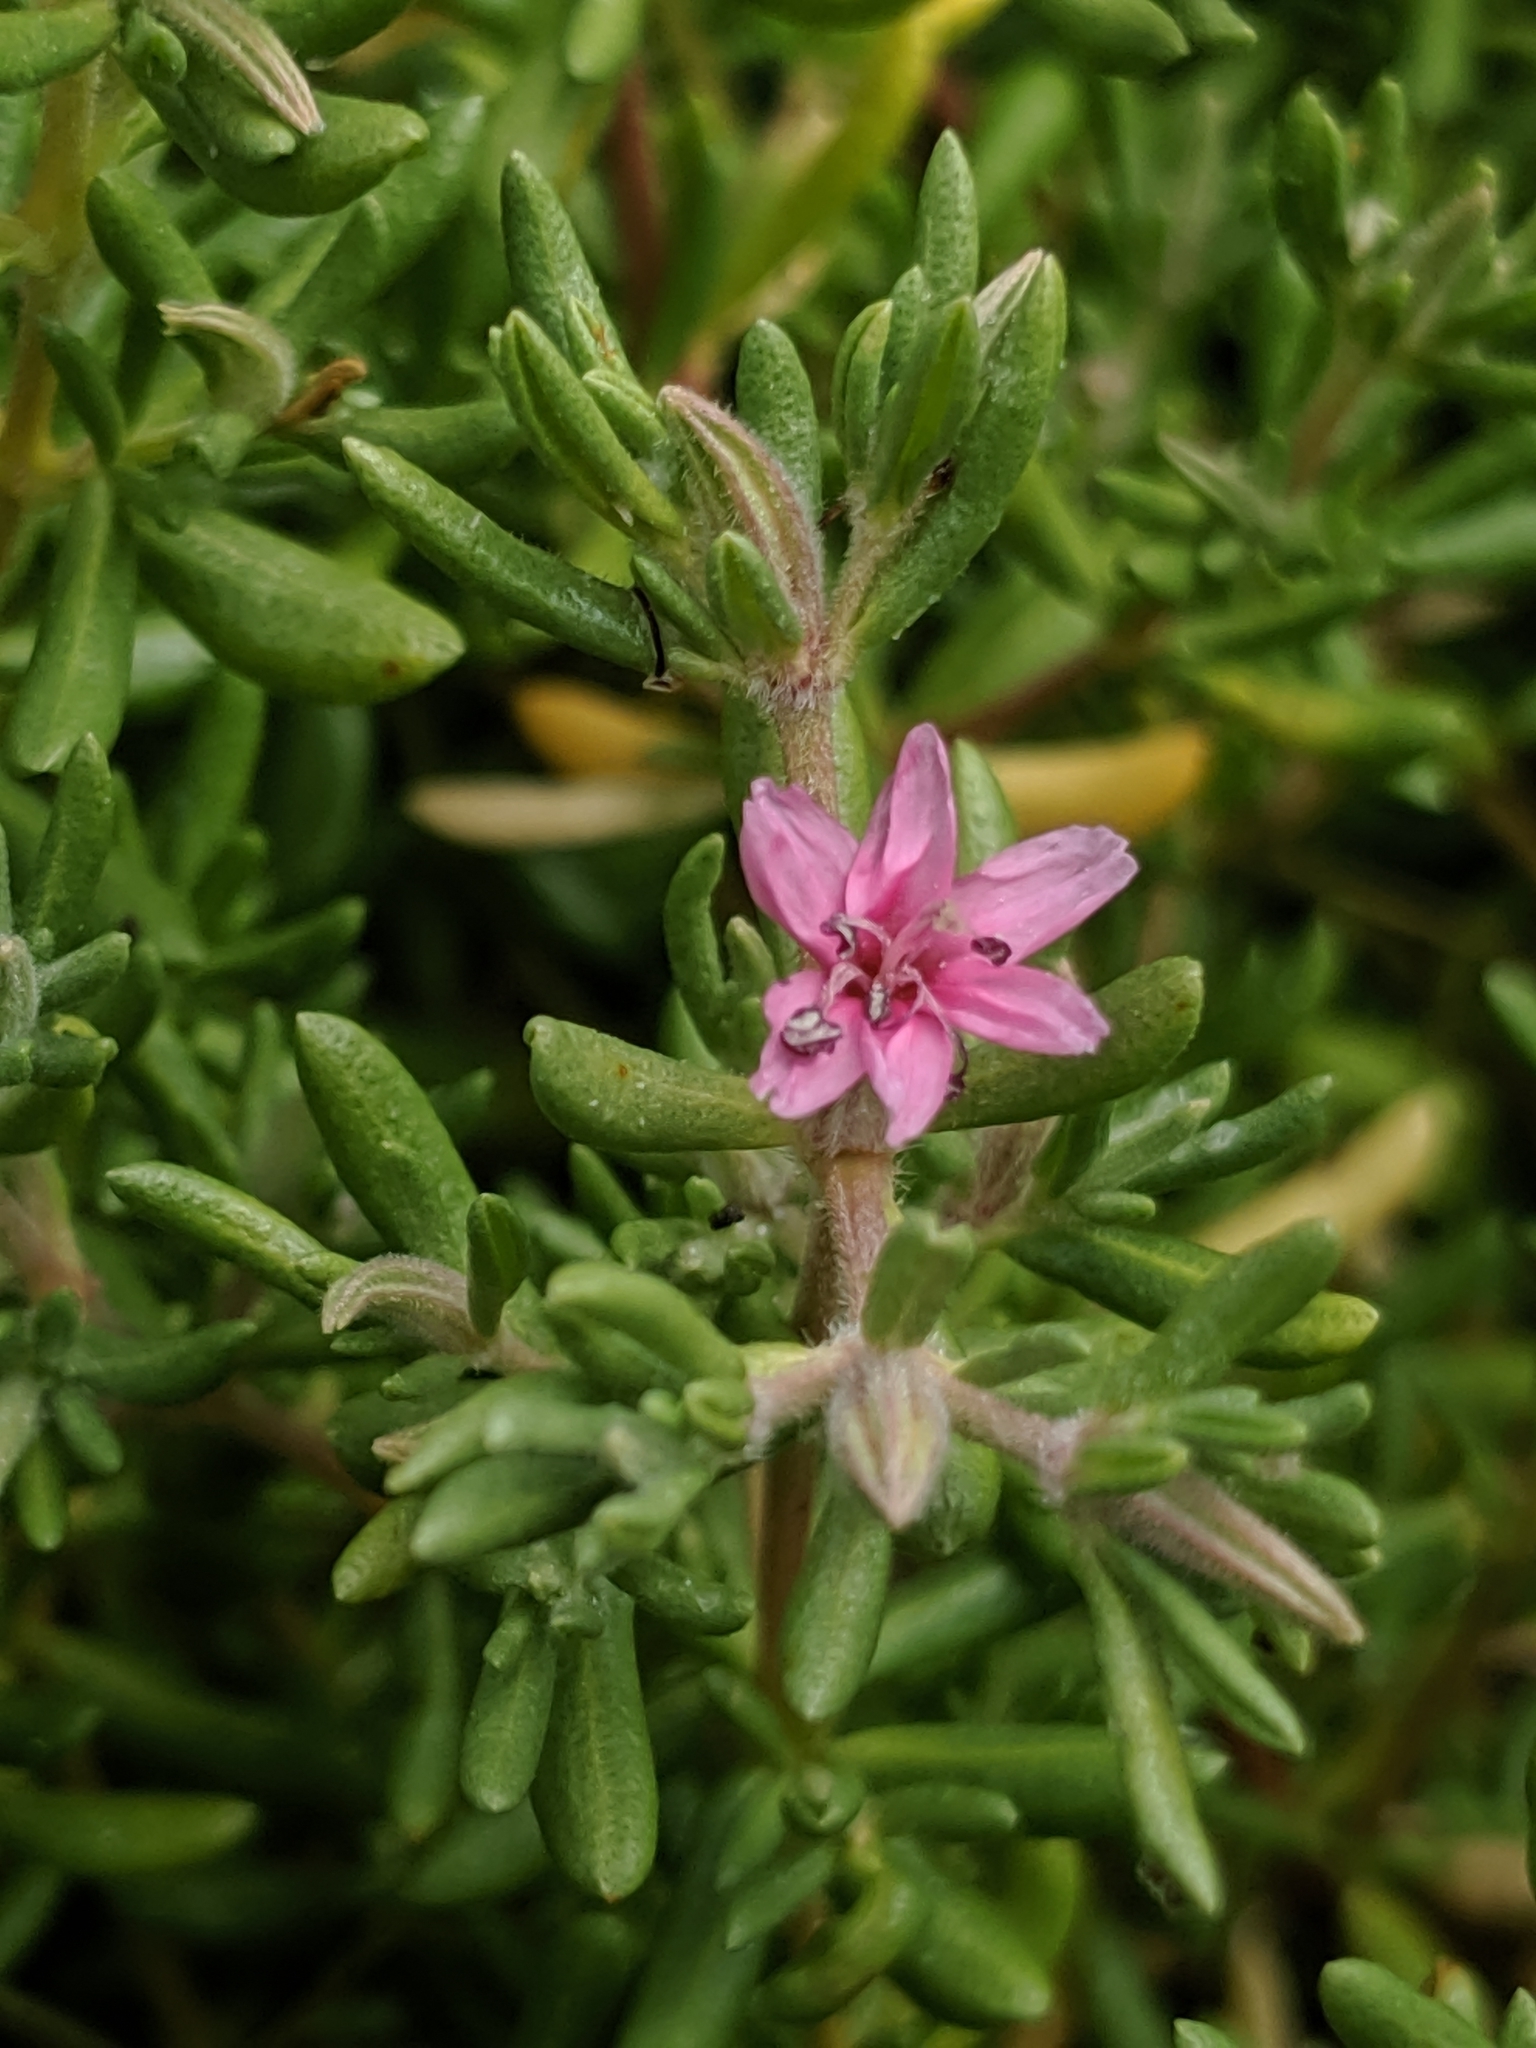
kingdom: Plantae
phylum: Tracheophyta
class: Magnoliopsida
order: Caryophyllales
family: Frankeniaceae
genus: Frankenia
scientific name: Frankenia salina
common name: Alkali seaheath
